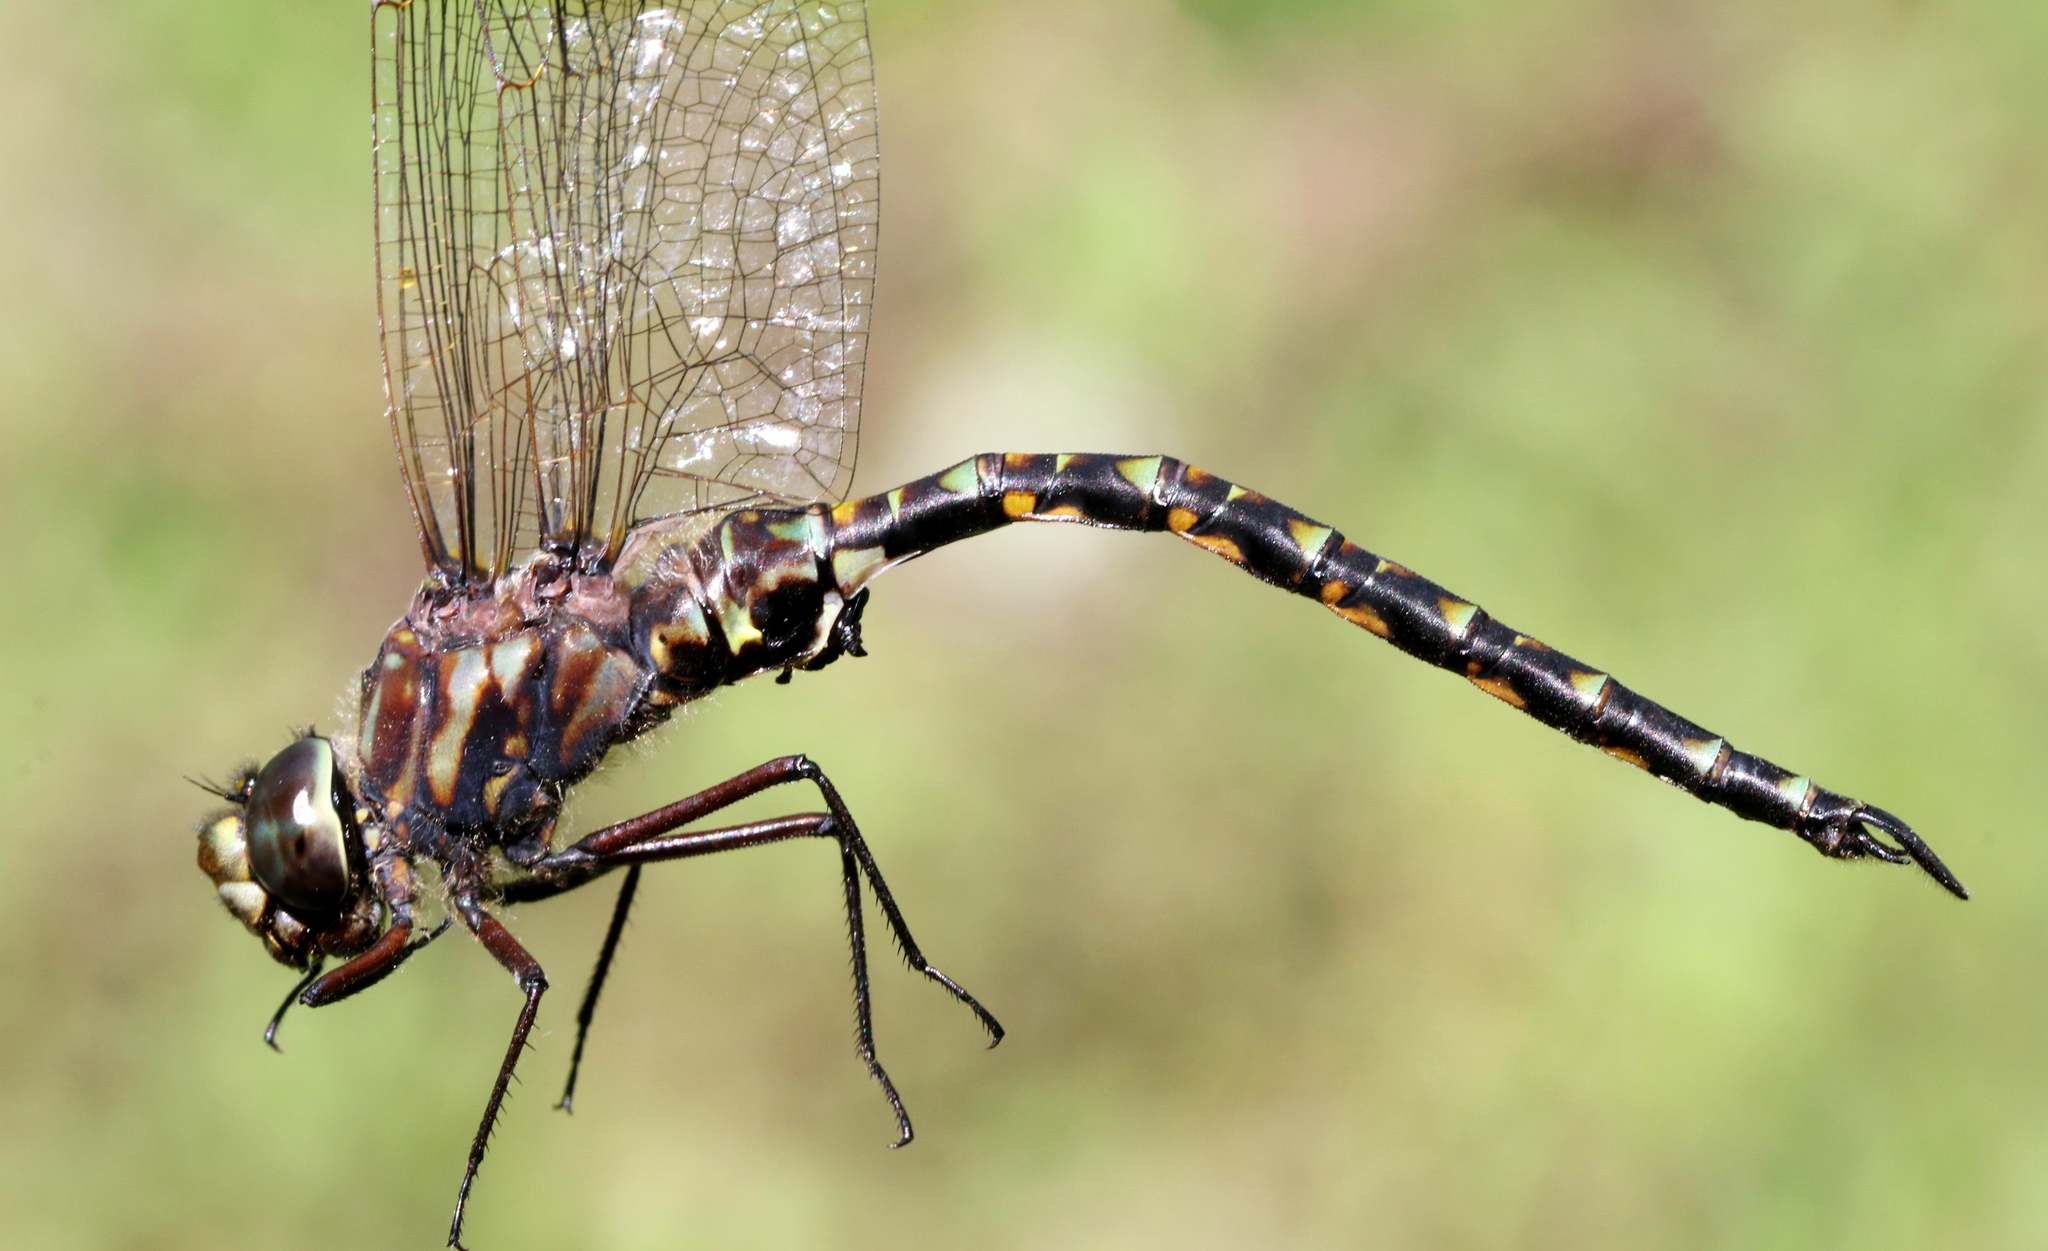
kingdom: Animalia
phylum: Arthropoda
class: Insecta
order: Odonata
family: Aeshnidae
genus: Gomphaeschna
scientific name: Gomphaeschna furcillata
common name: Harlequin darner
